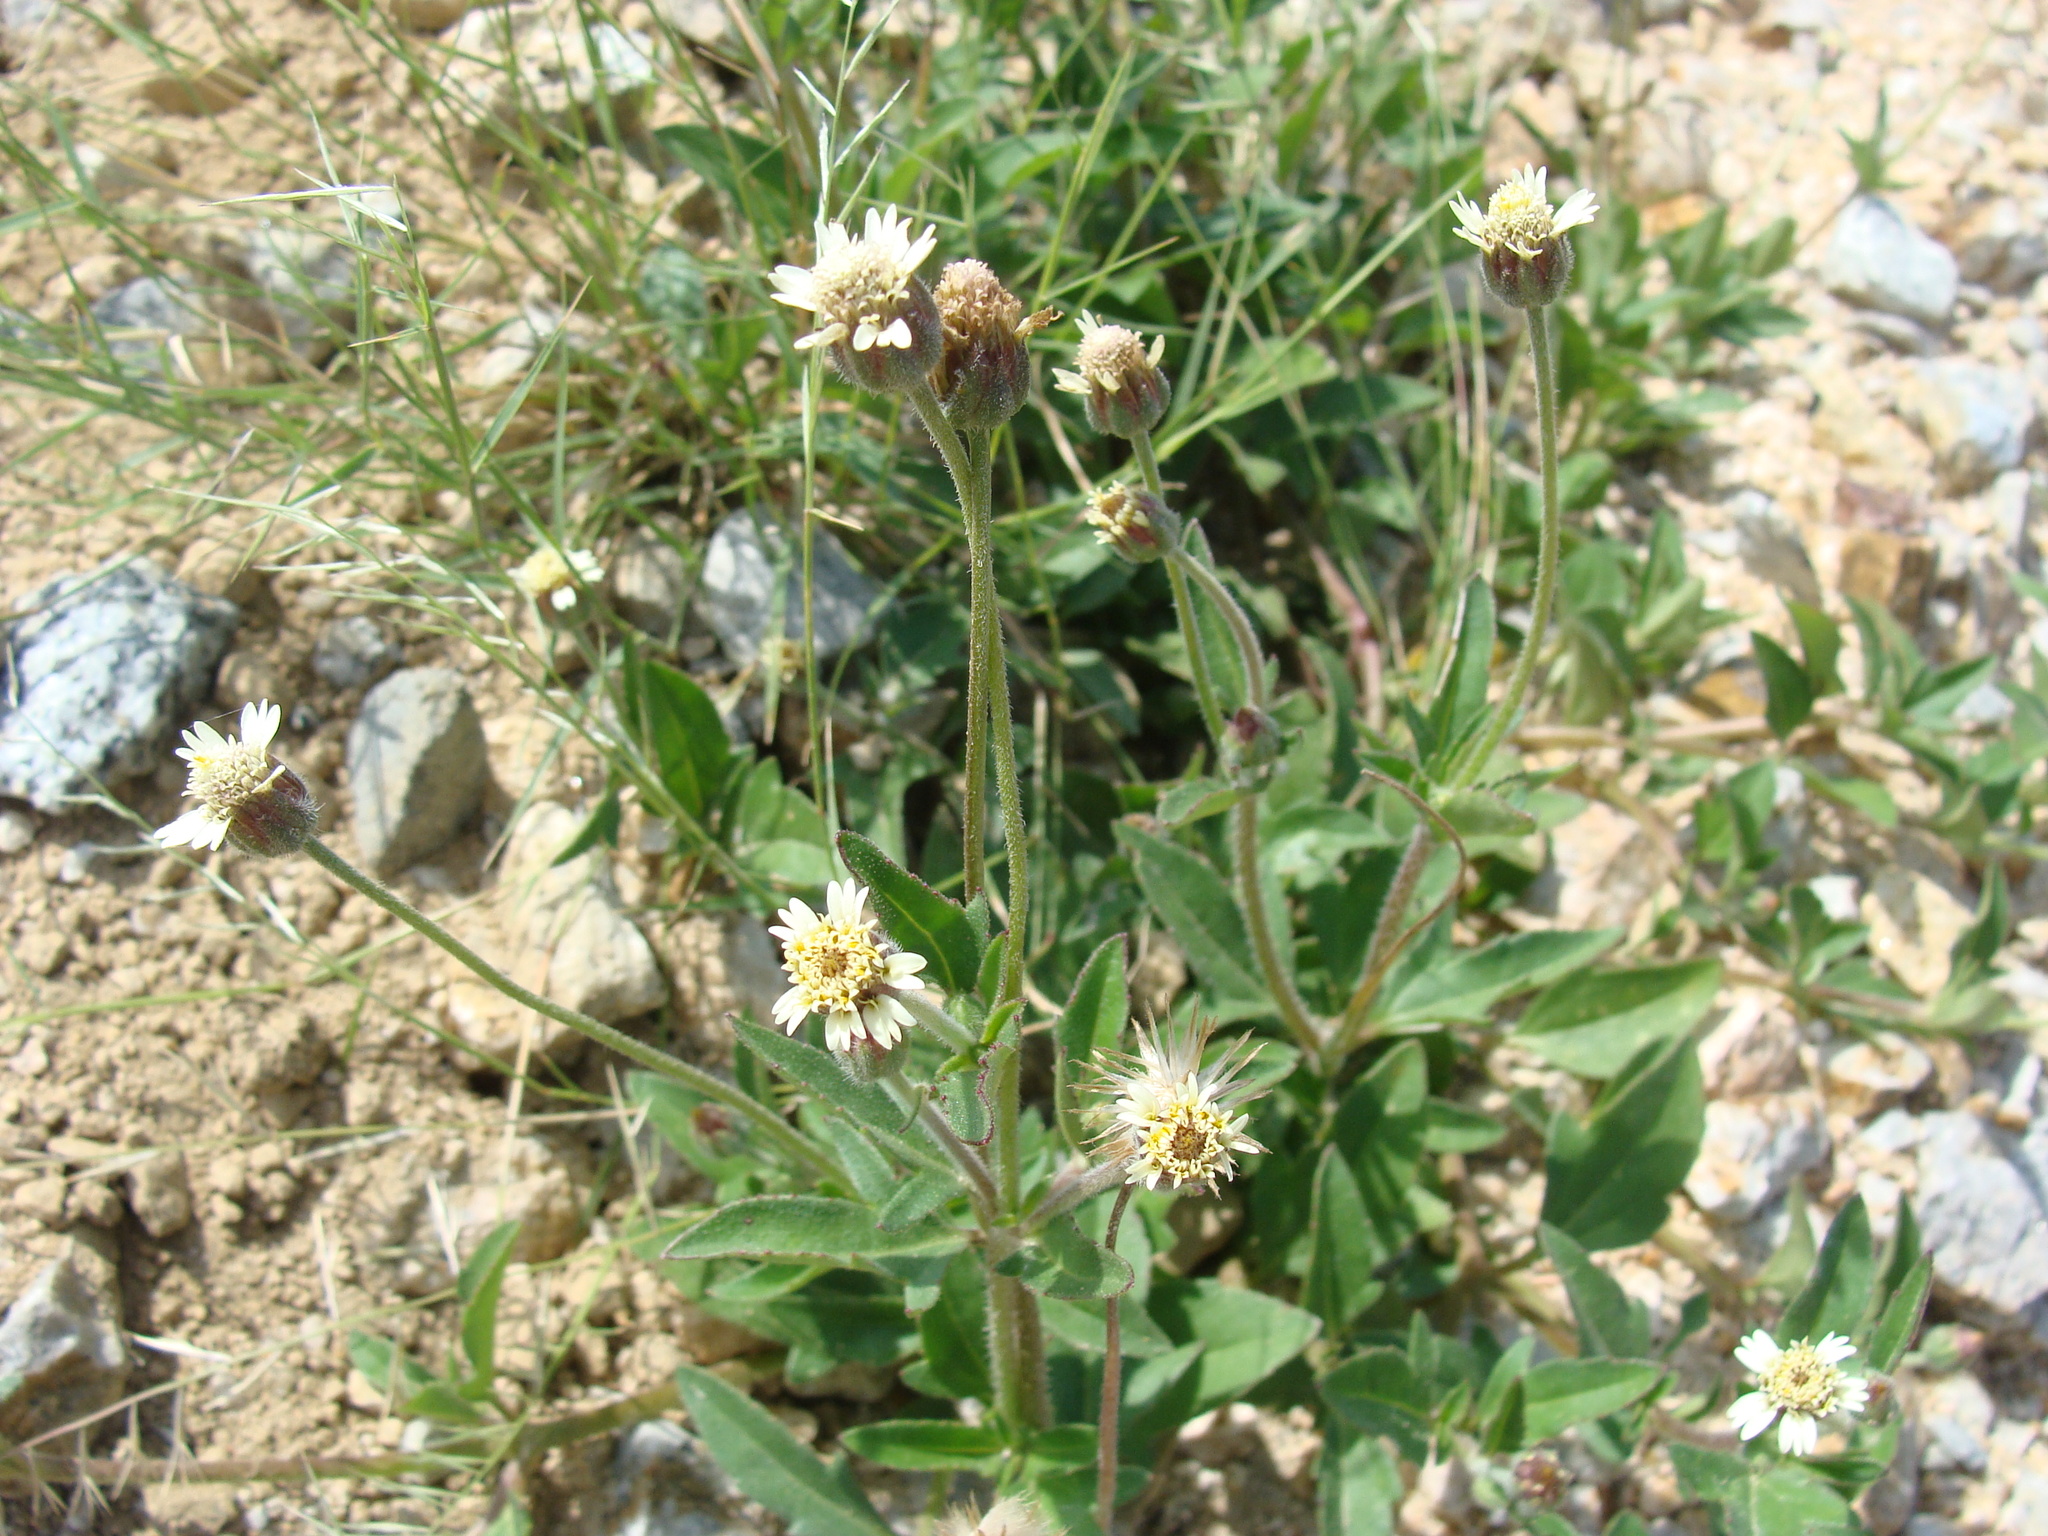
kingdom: Plantae
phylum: Tracheophyta
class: Magnoliopsida
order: Asterales
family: Asteraceae
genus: Tridax
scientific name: Tridax procumbens
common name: Coatbuttons
